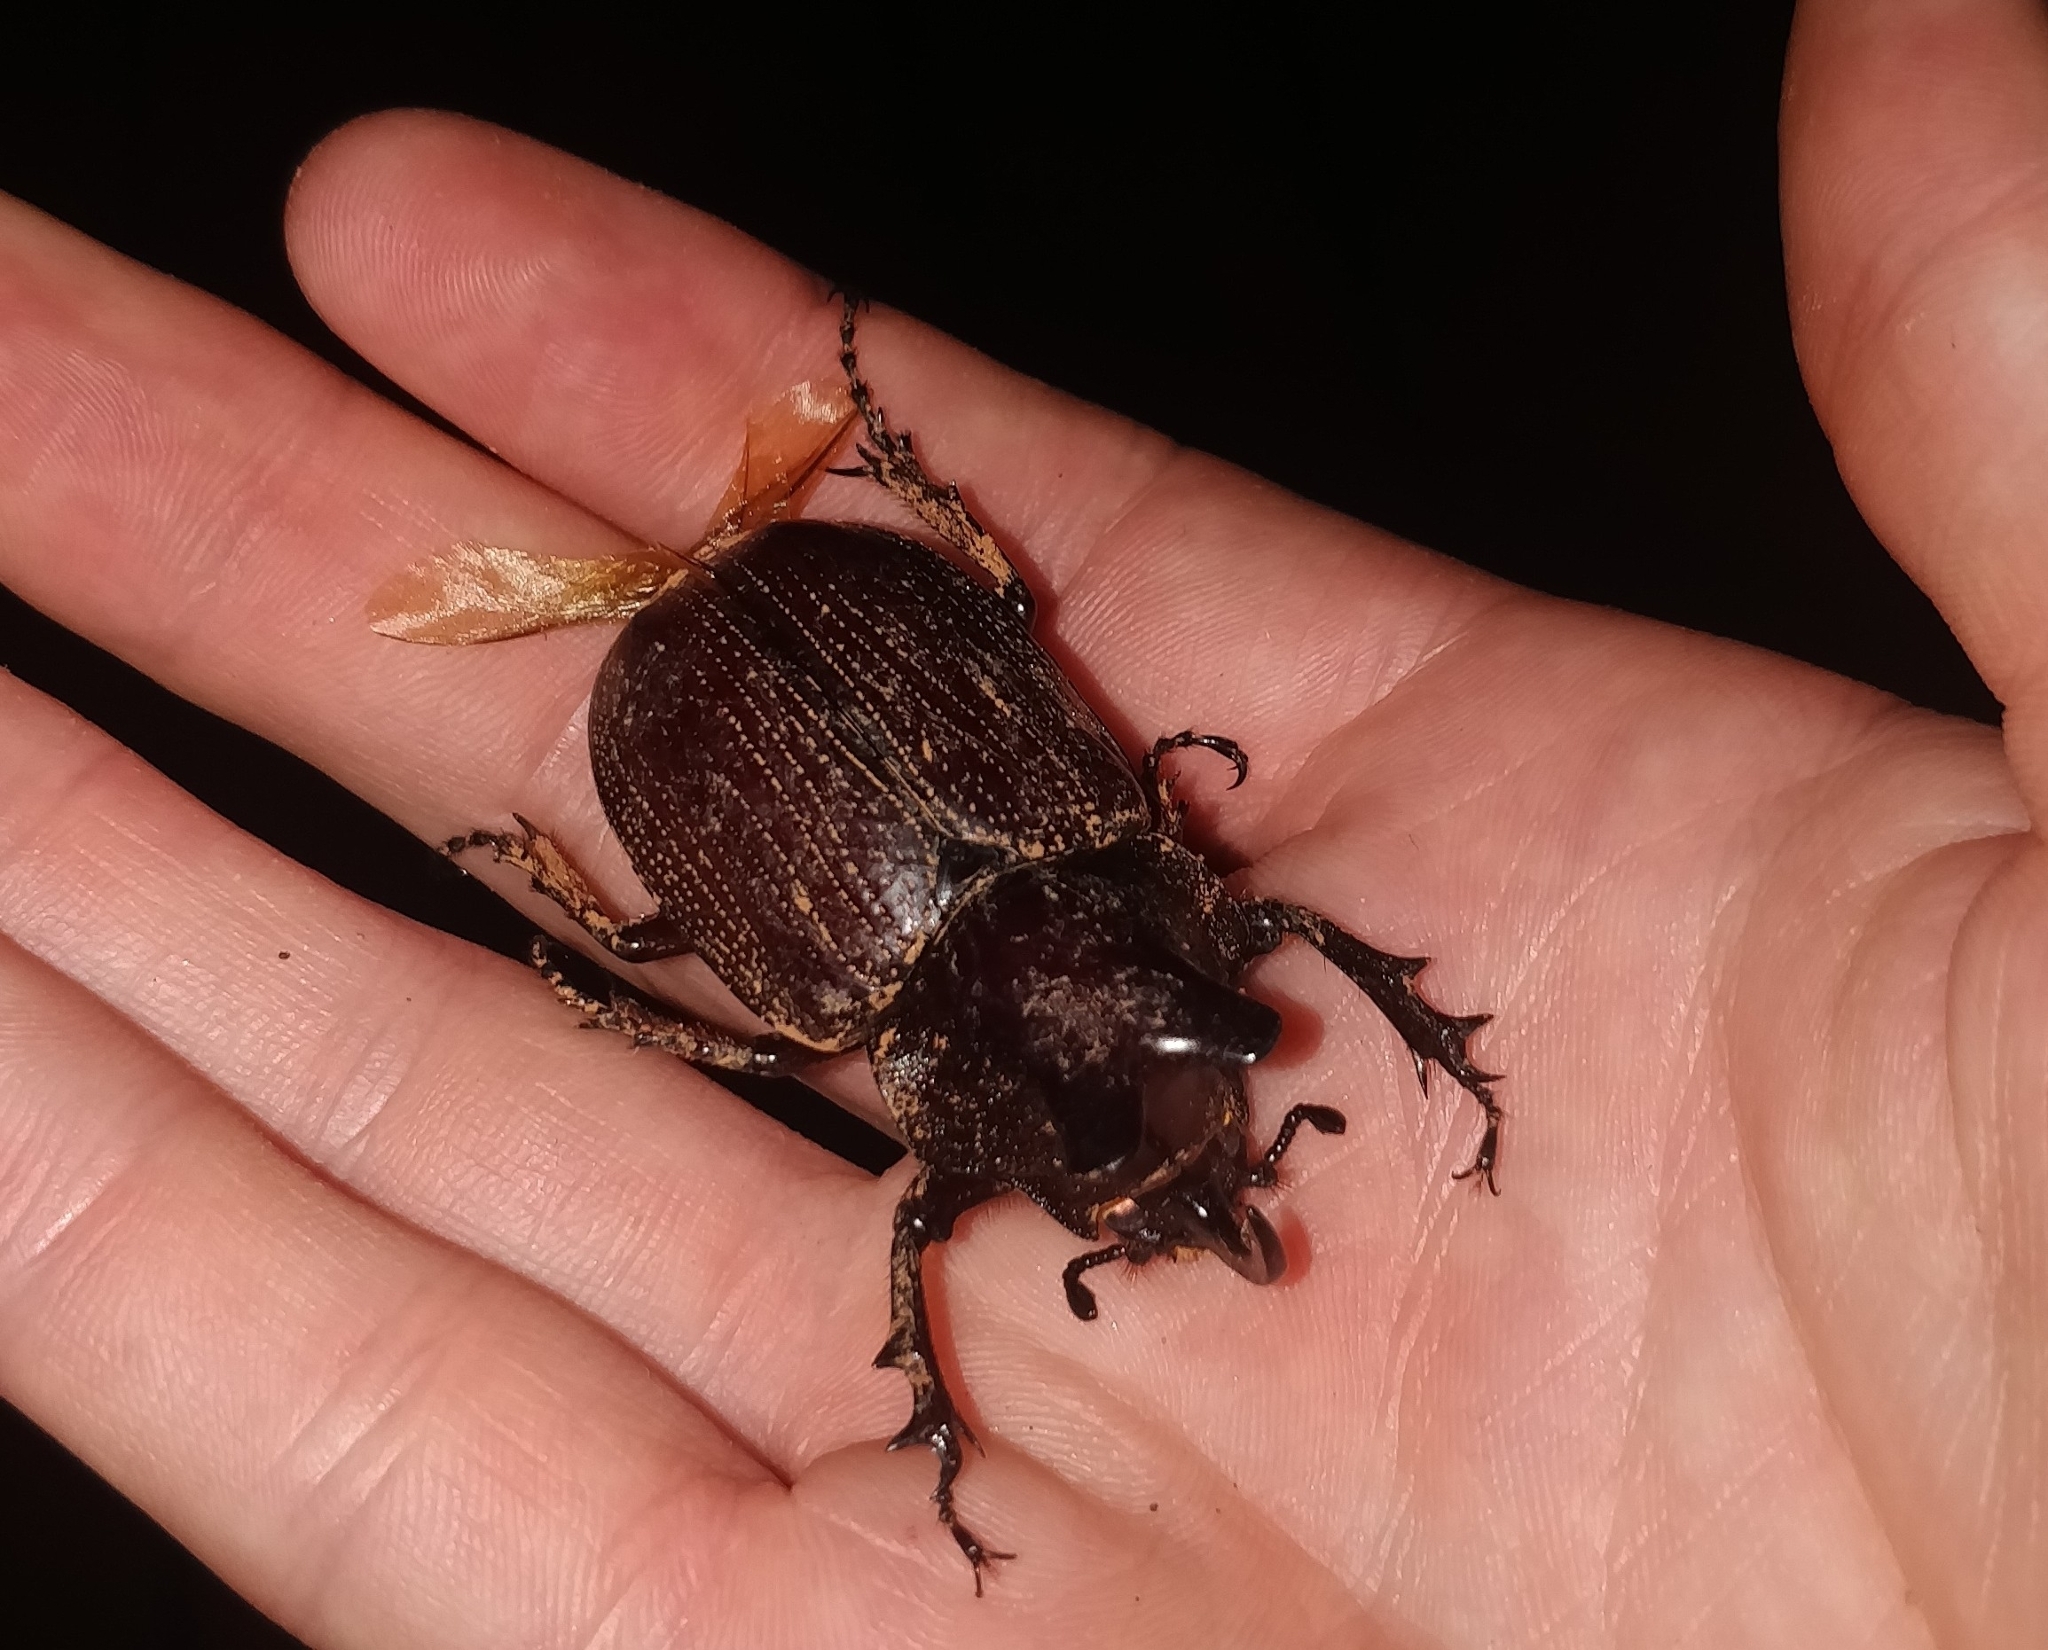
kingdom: Animalia
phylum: Arthropoda
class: Insecta
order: Coleoptera
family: Scarabaeidae
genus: Coelosis
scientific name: Coelosis biloba
